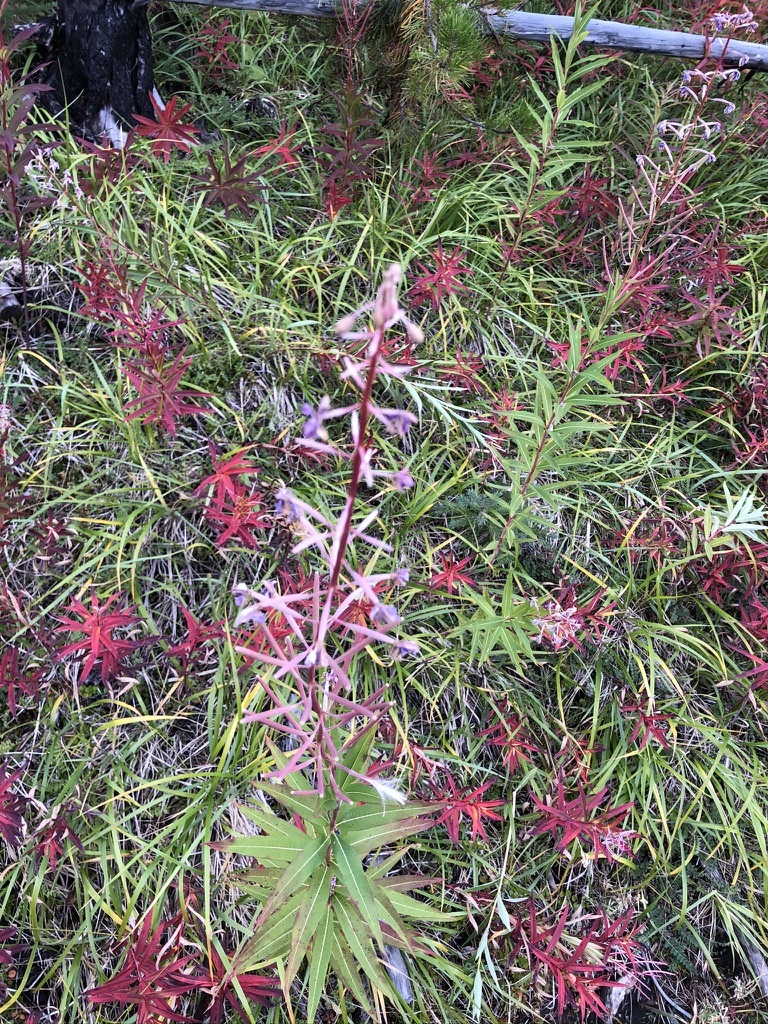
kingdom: Plantae
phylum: Tracheophyta
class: Magnoliopsida
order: Myrtales
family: Onagraceae
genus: Chamaenerion
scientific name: Chamaenerion angustifolium
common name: Fireweed
